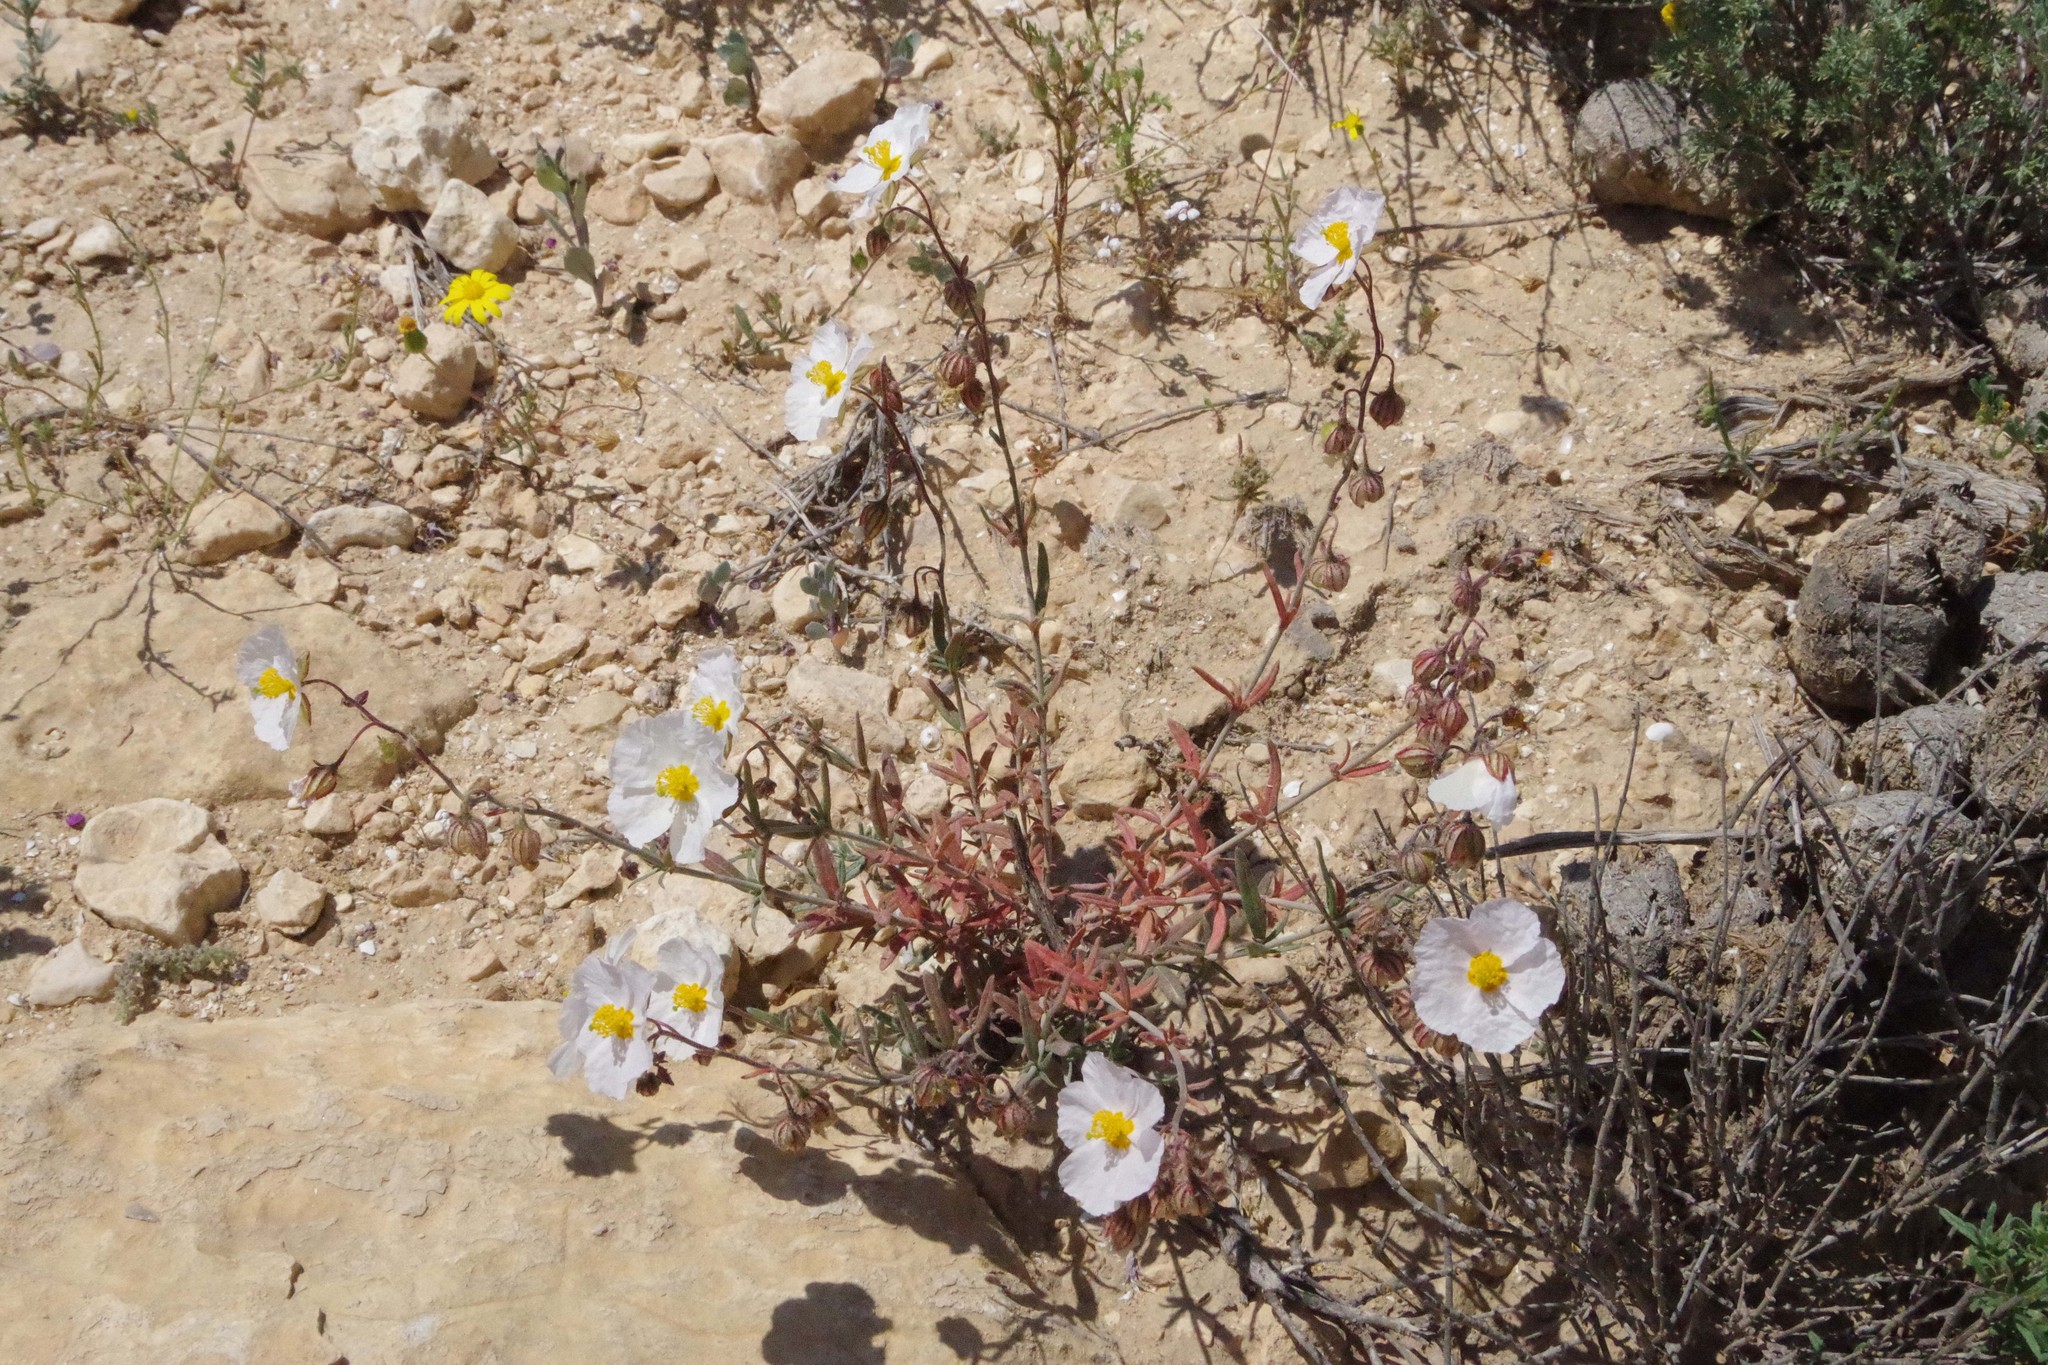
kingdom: Plantae
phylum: Tracheophyta
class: Magnoliopsida
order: Malvales
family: Cistaceae
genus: Helianthemum
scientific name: Helianthemum vesicarium
